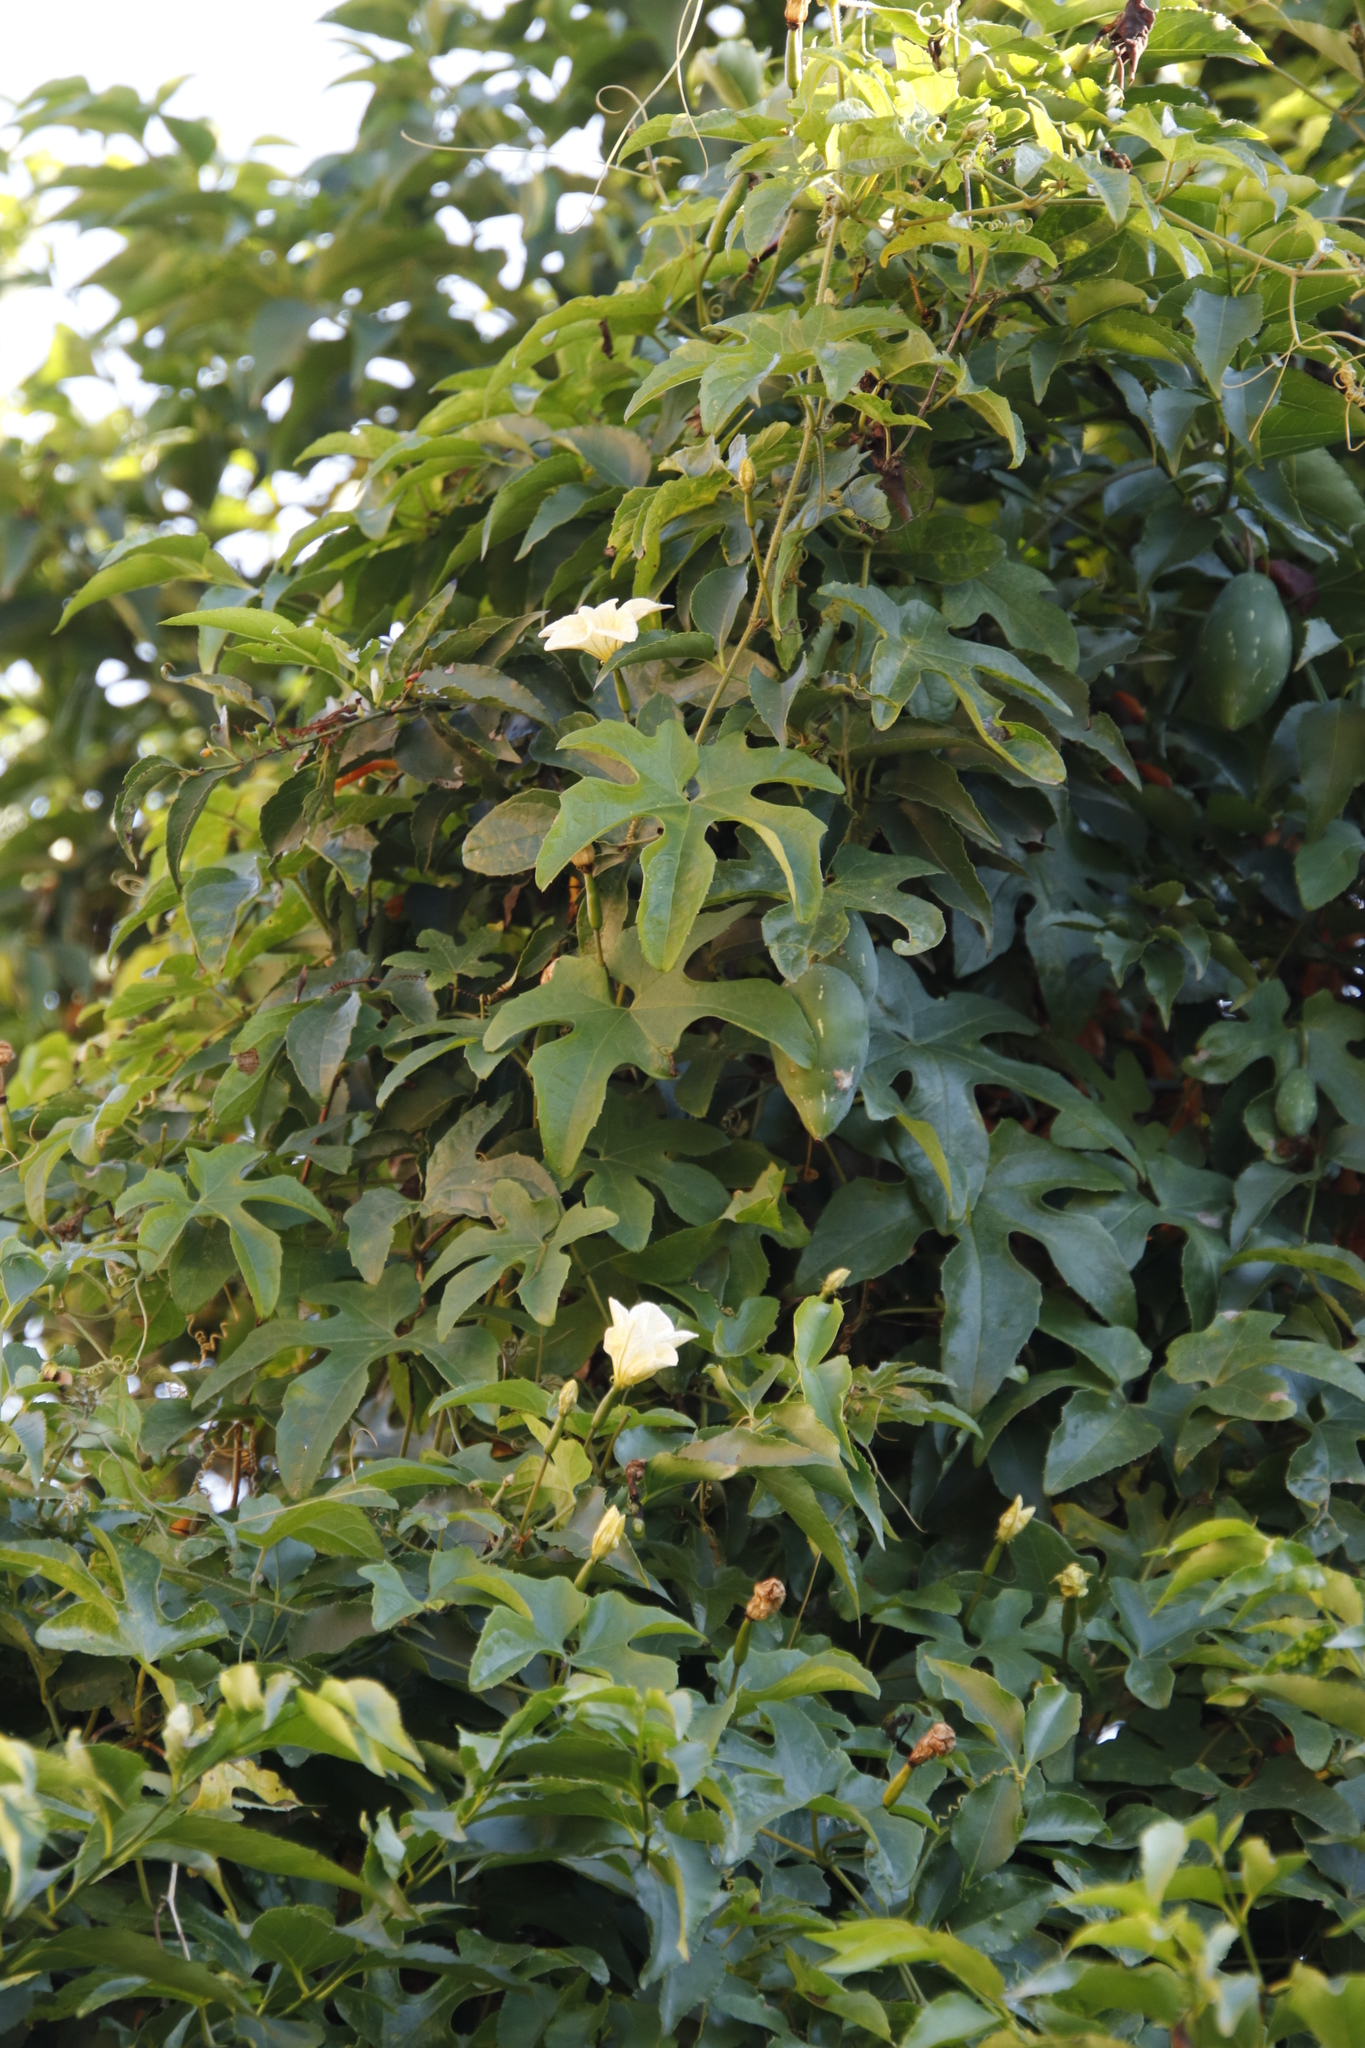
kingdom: Plantae
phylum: Tracheophyta
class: Magnoliopsida
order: Cucurbitales
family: Cucurbitaceae
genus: Coccinia
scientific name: Coccinia palmata
